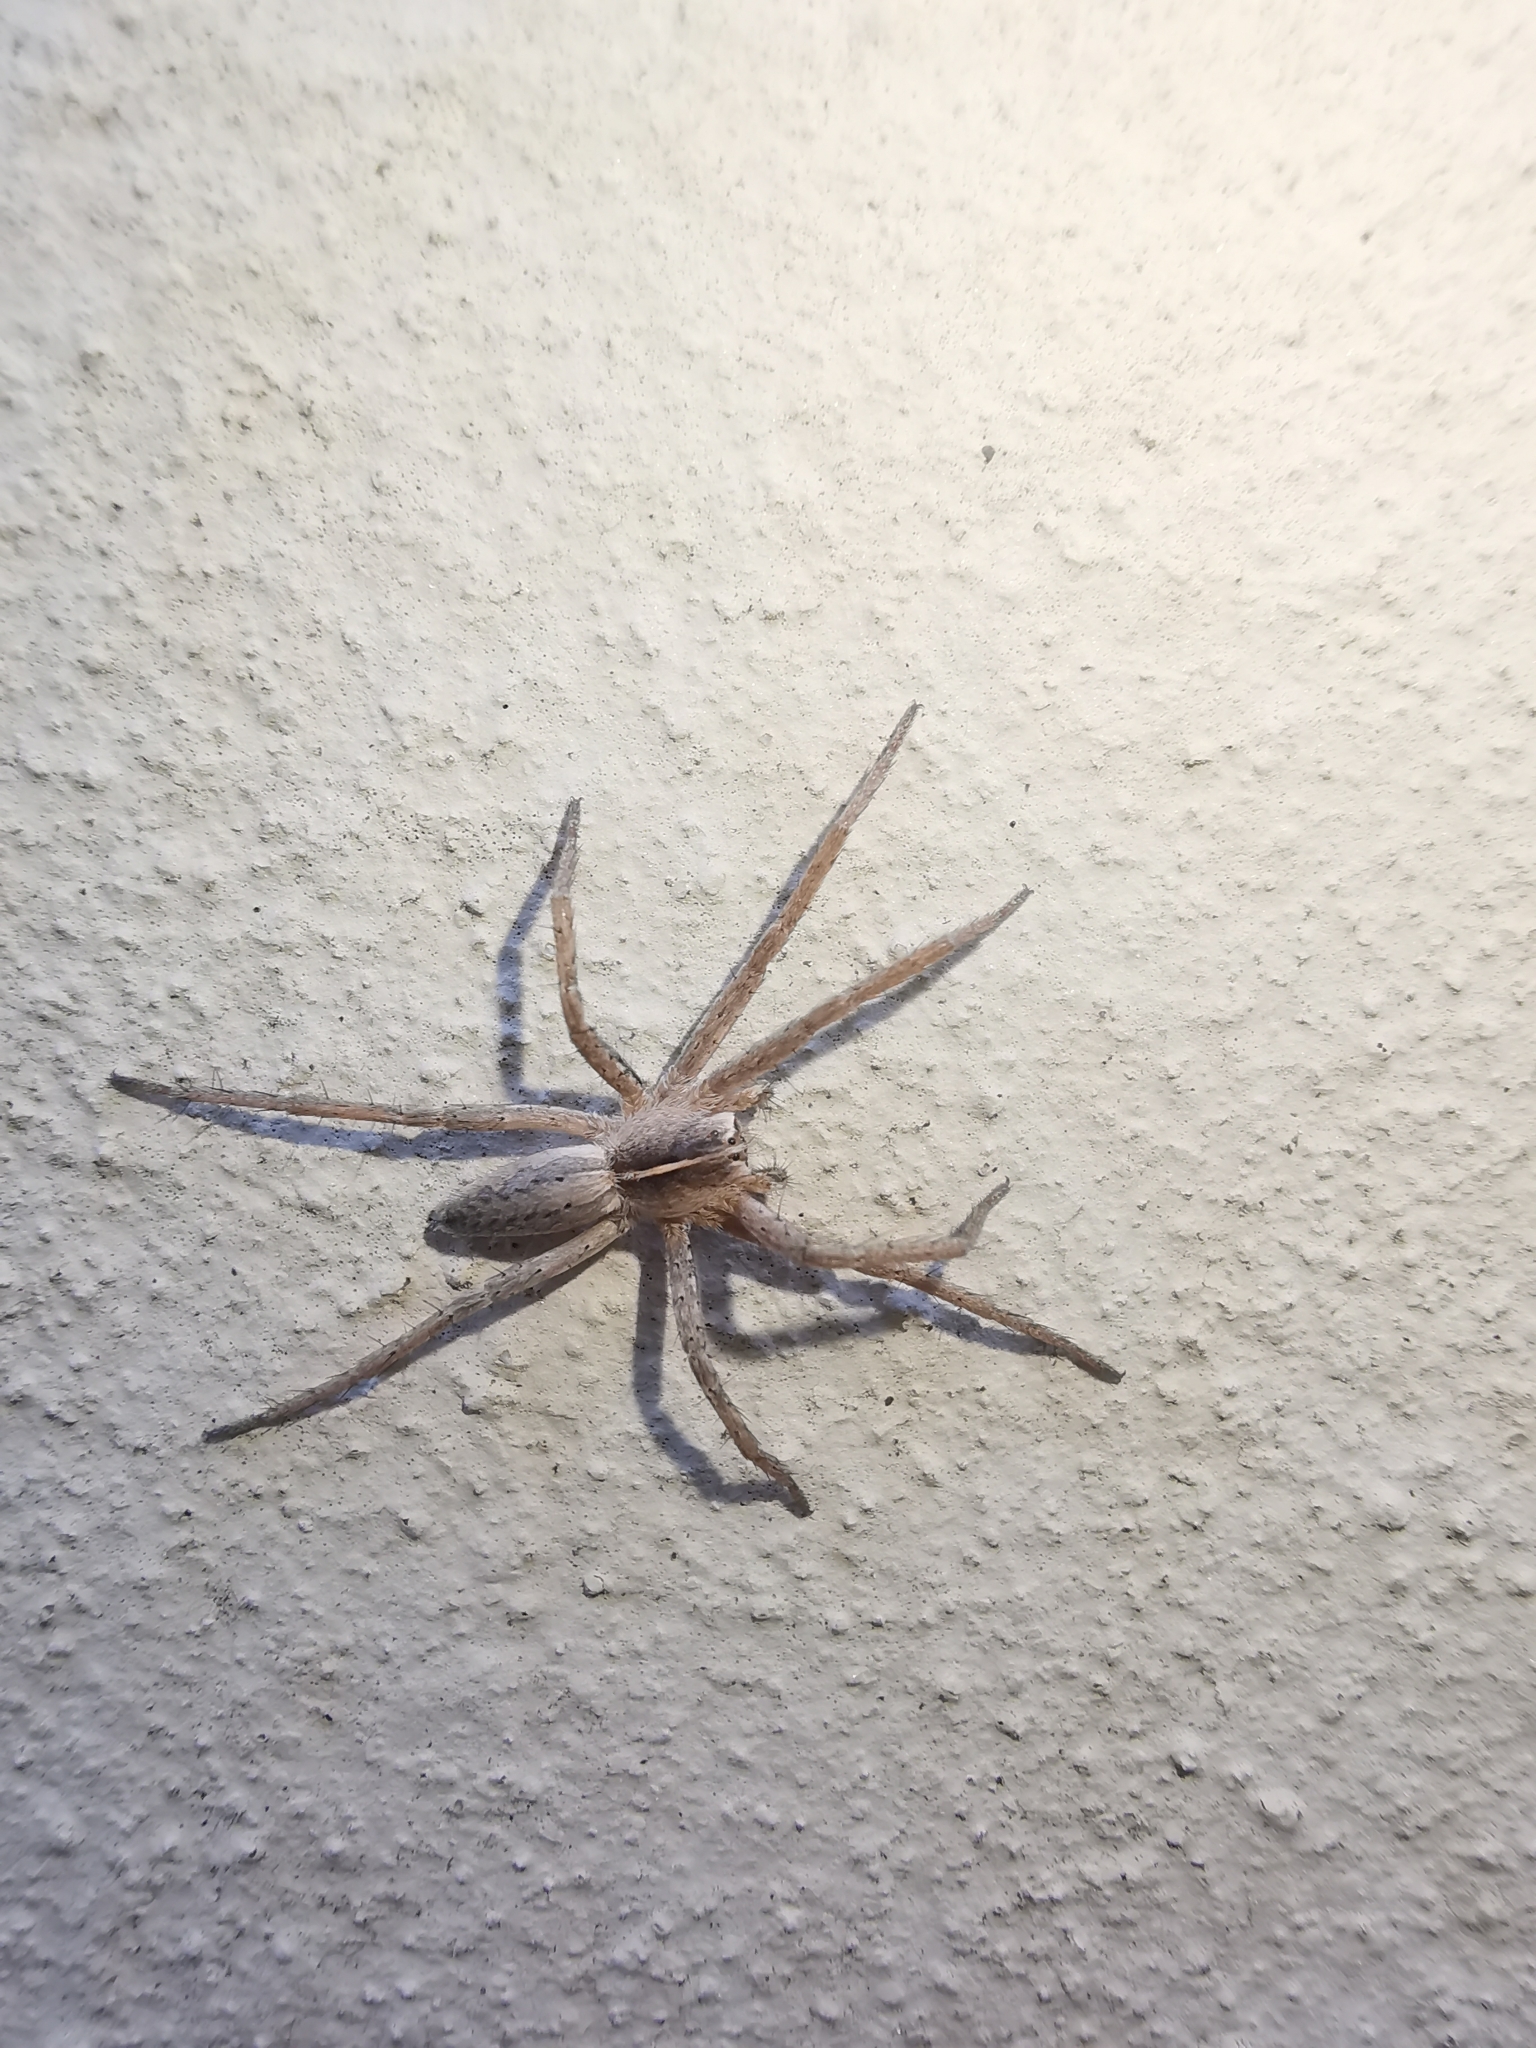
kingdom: Animalia
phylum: Arthropoda
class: Arachnida
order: Araneae
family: Pisauridae
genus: Pisaura
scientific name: Pisaura mirabilis
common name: Tent spider
